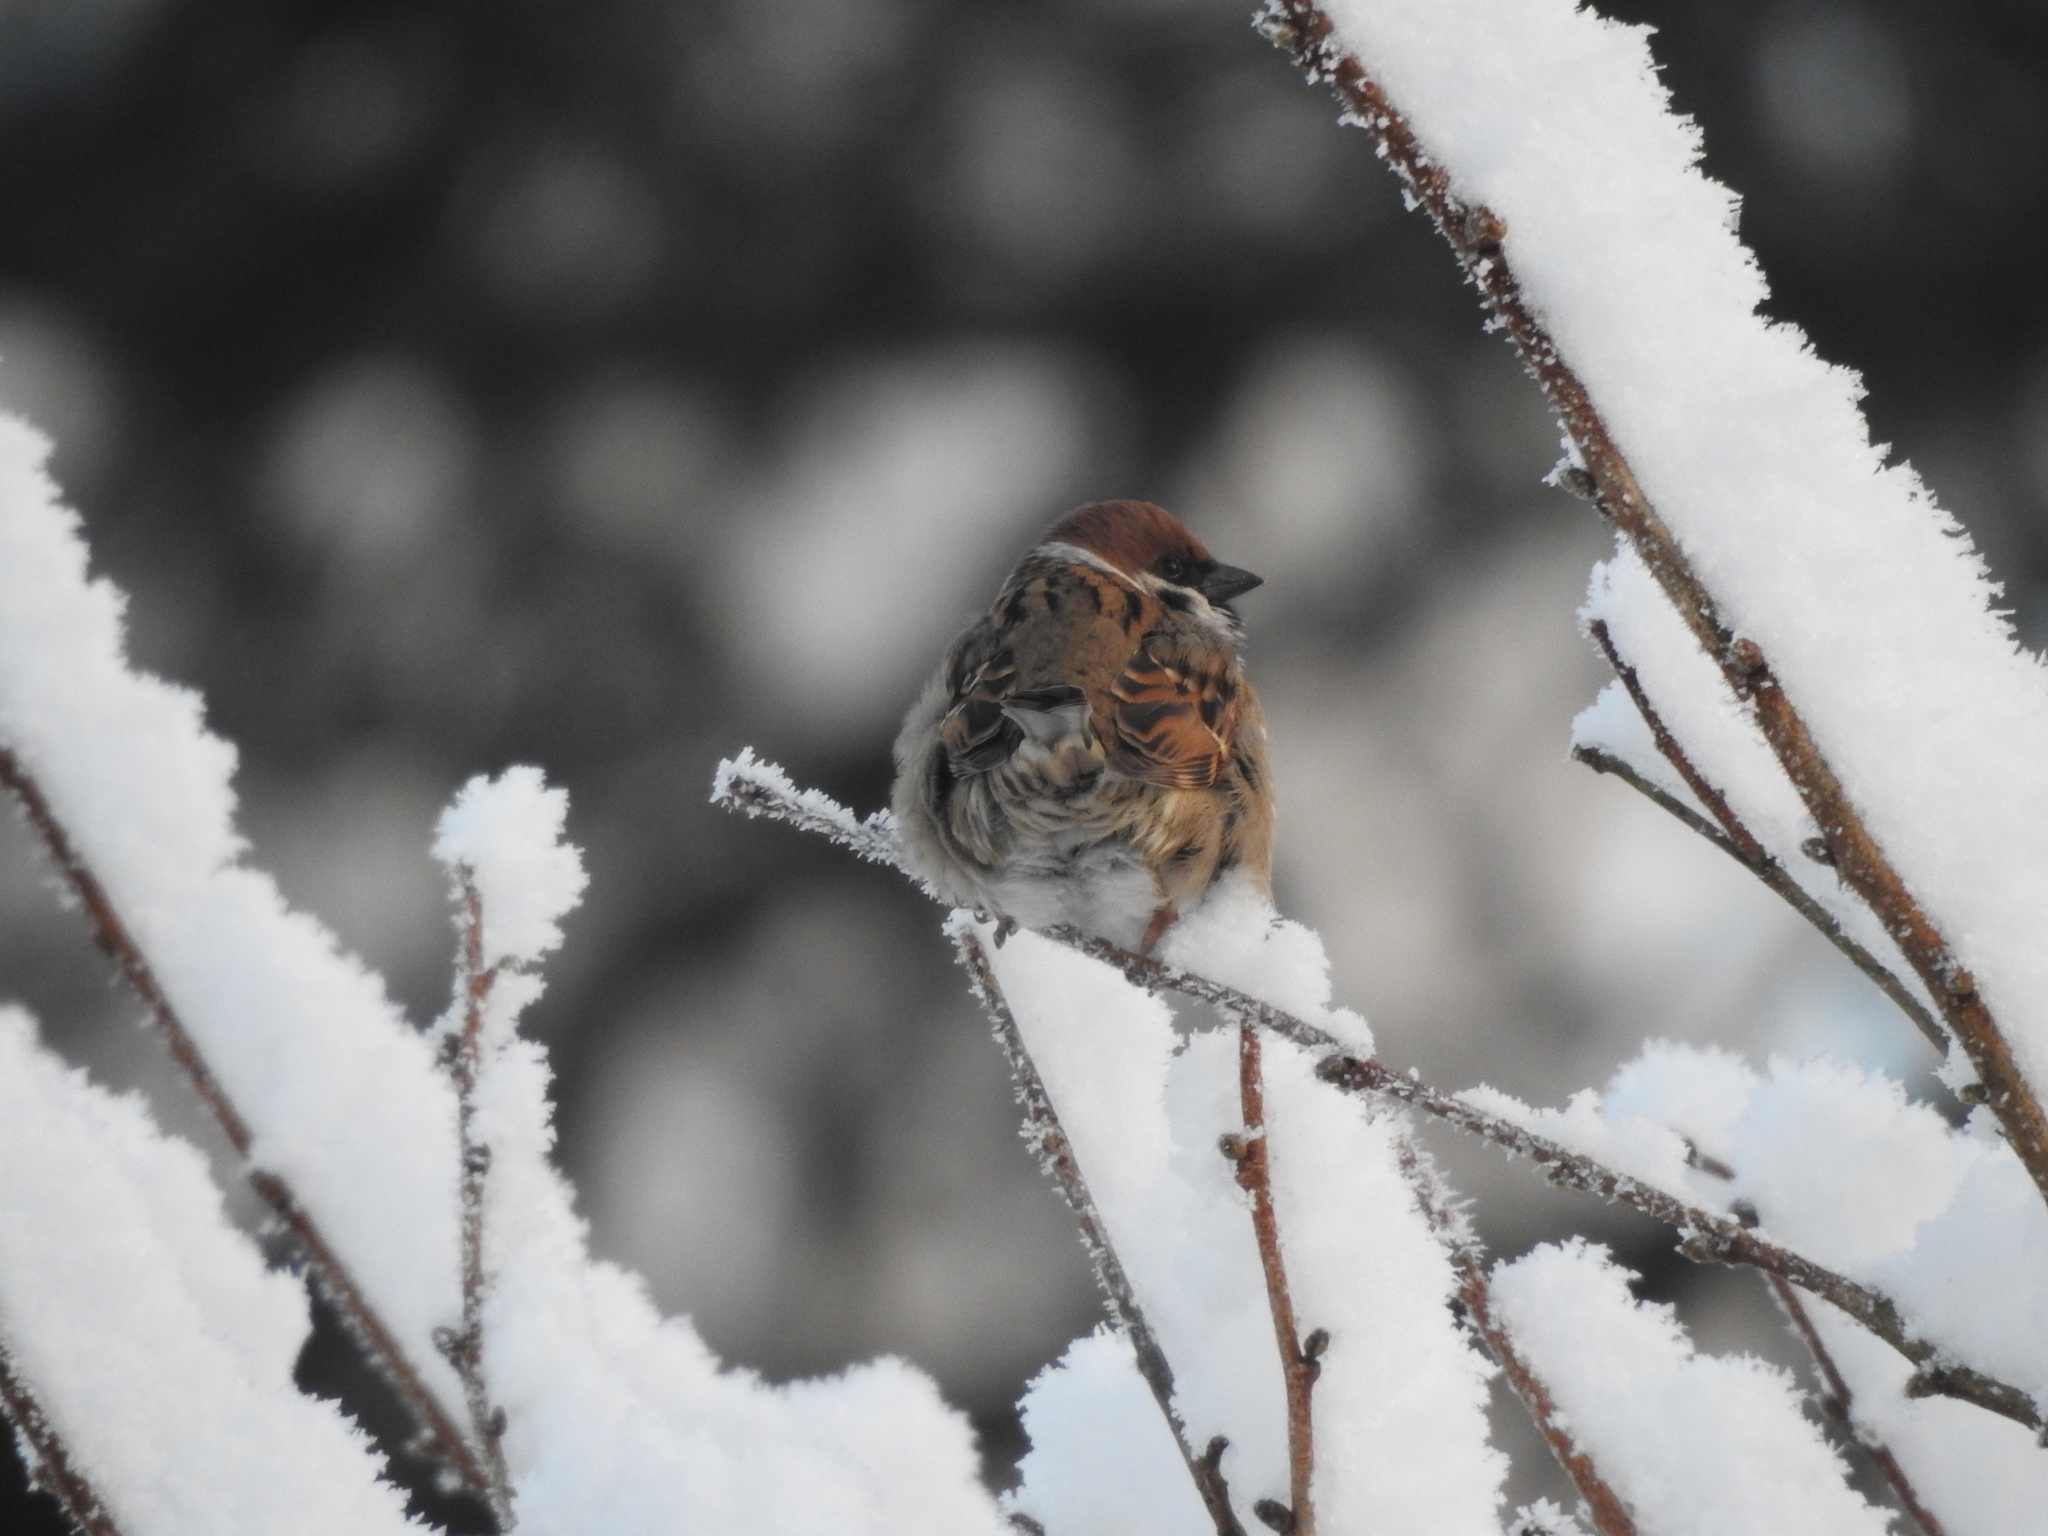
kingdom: Animalia
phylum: Chordata
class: Aves
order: Passeriformes
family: Passeridae
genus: Passer
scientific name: Passer montanus
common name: Eurasian tree sparrow
